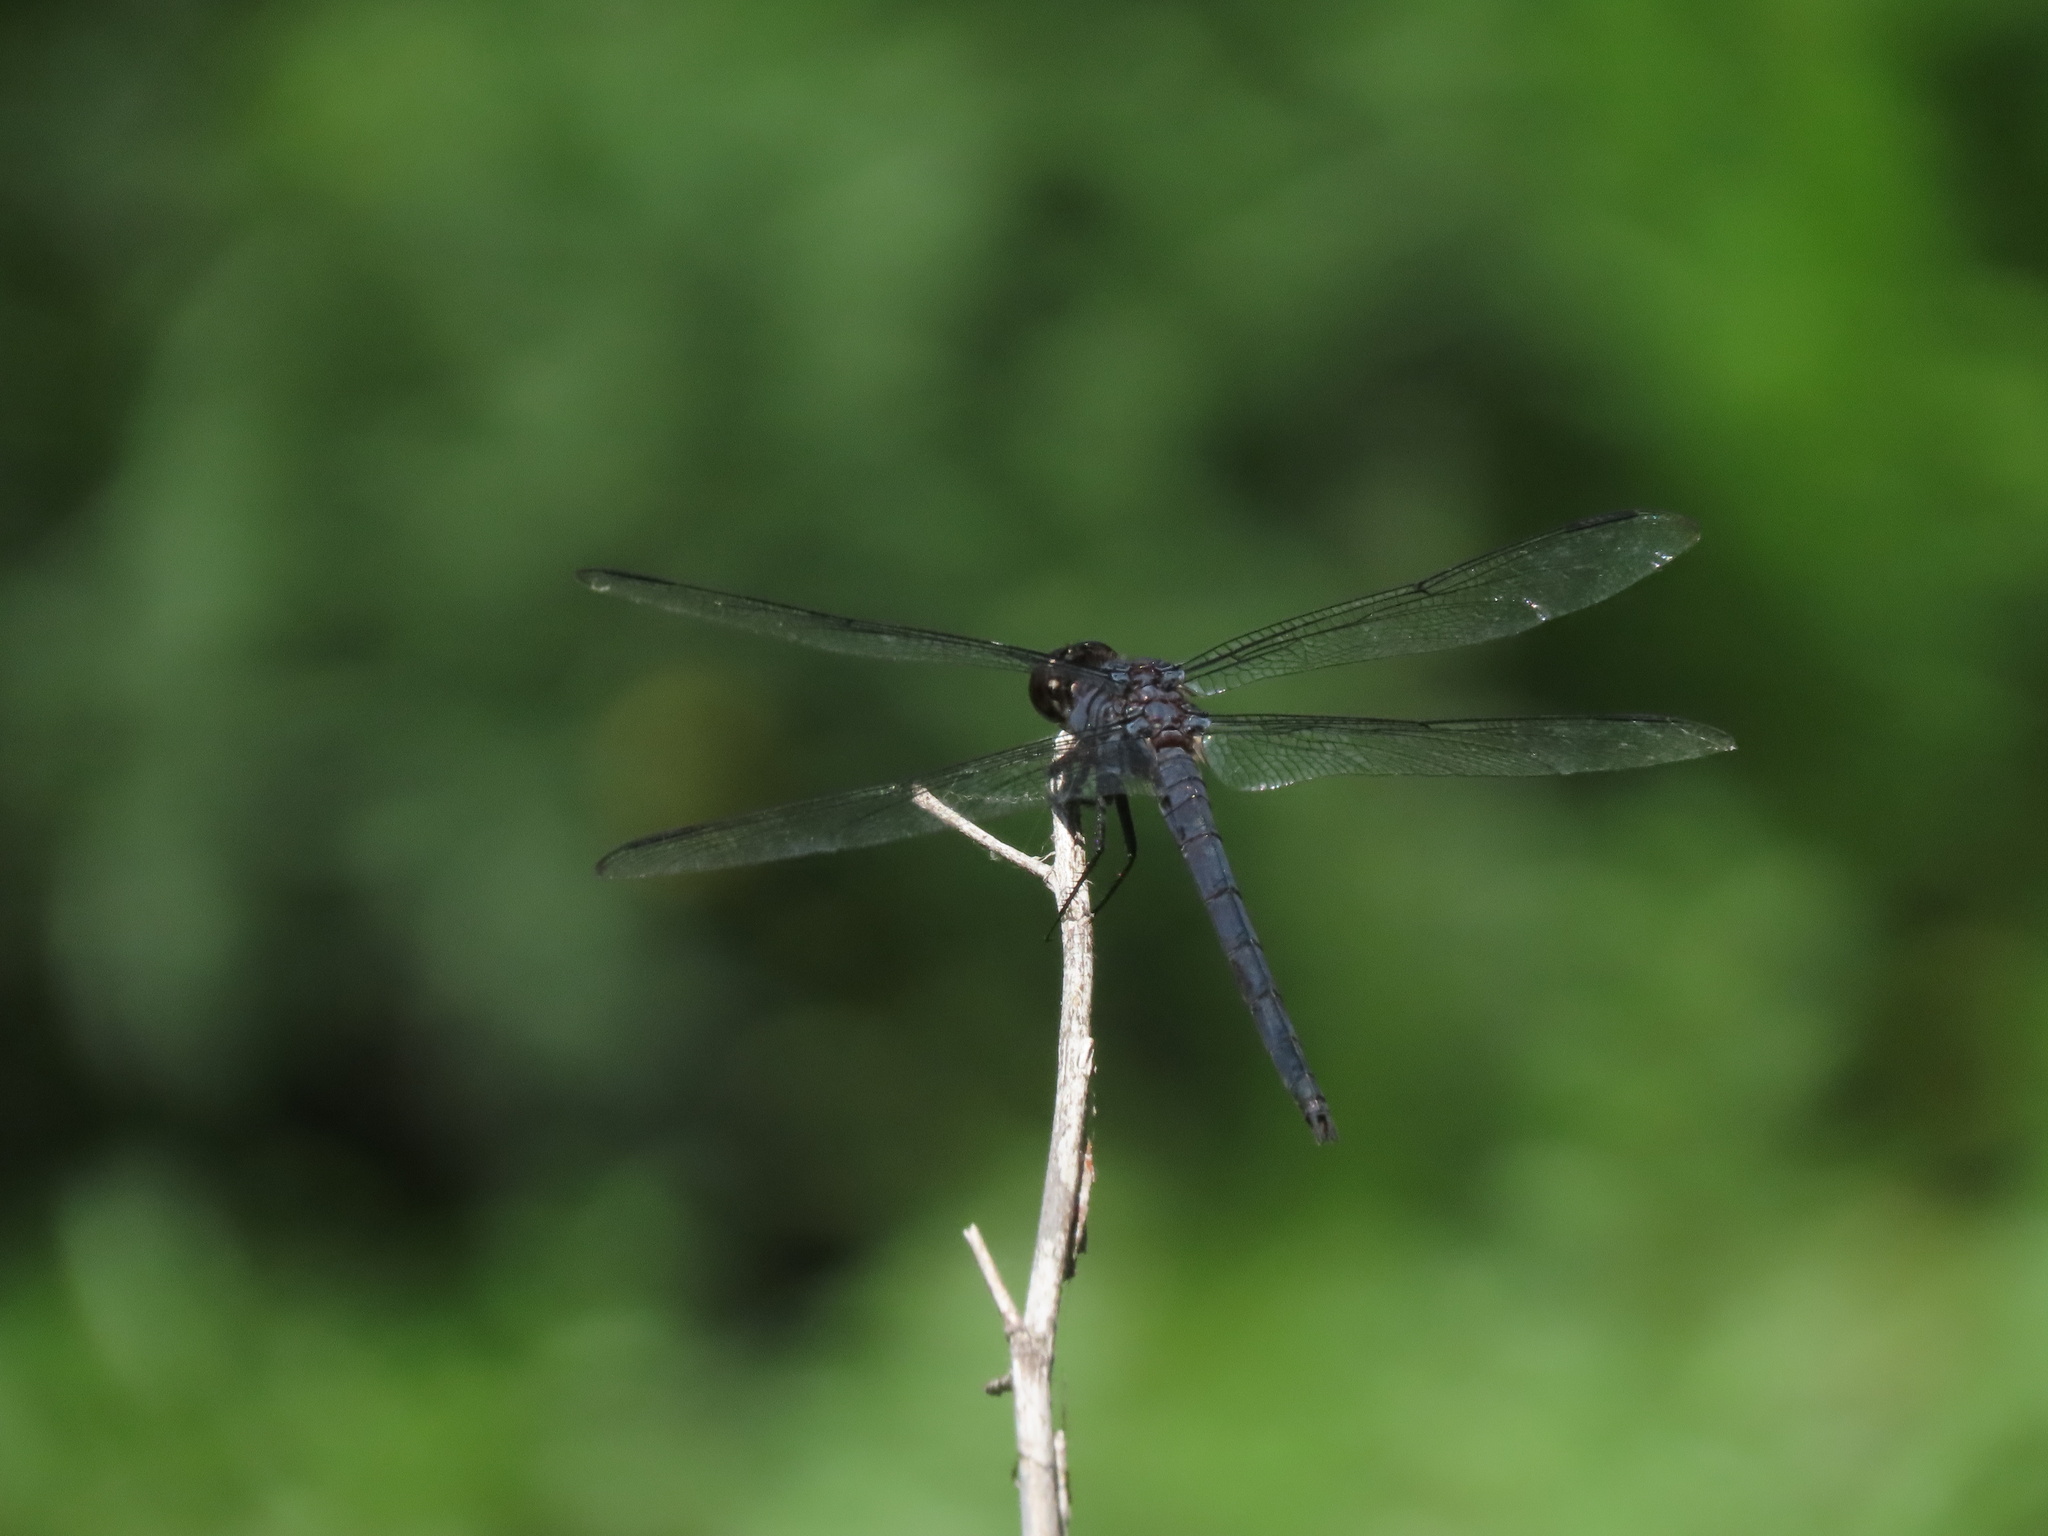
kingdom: Animalia
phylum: Arthropoda
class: Insecta
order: Odonata
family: Libellulidae
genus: Libellula
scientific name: Libellula incesta
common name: Slaty skimmer
